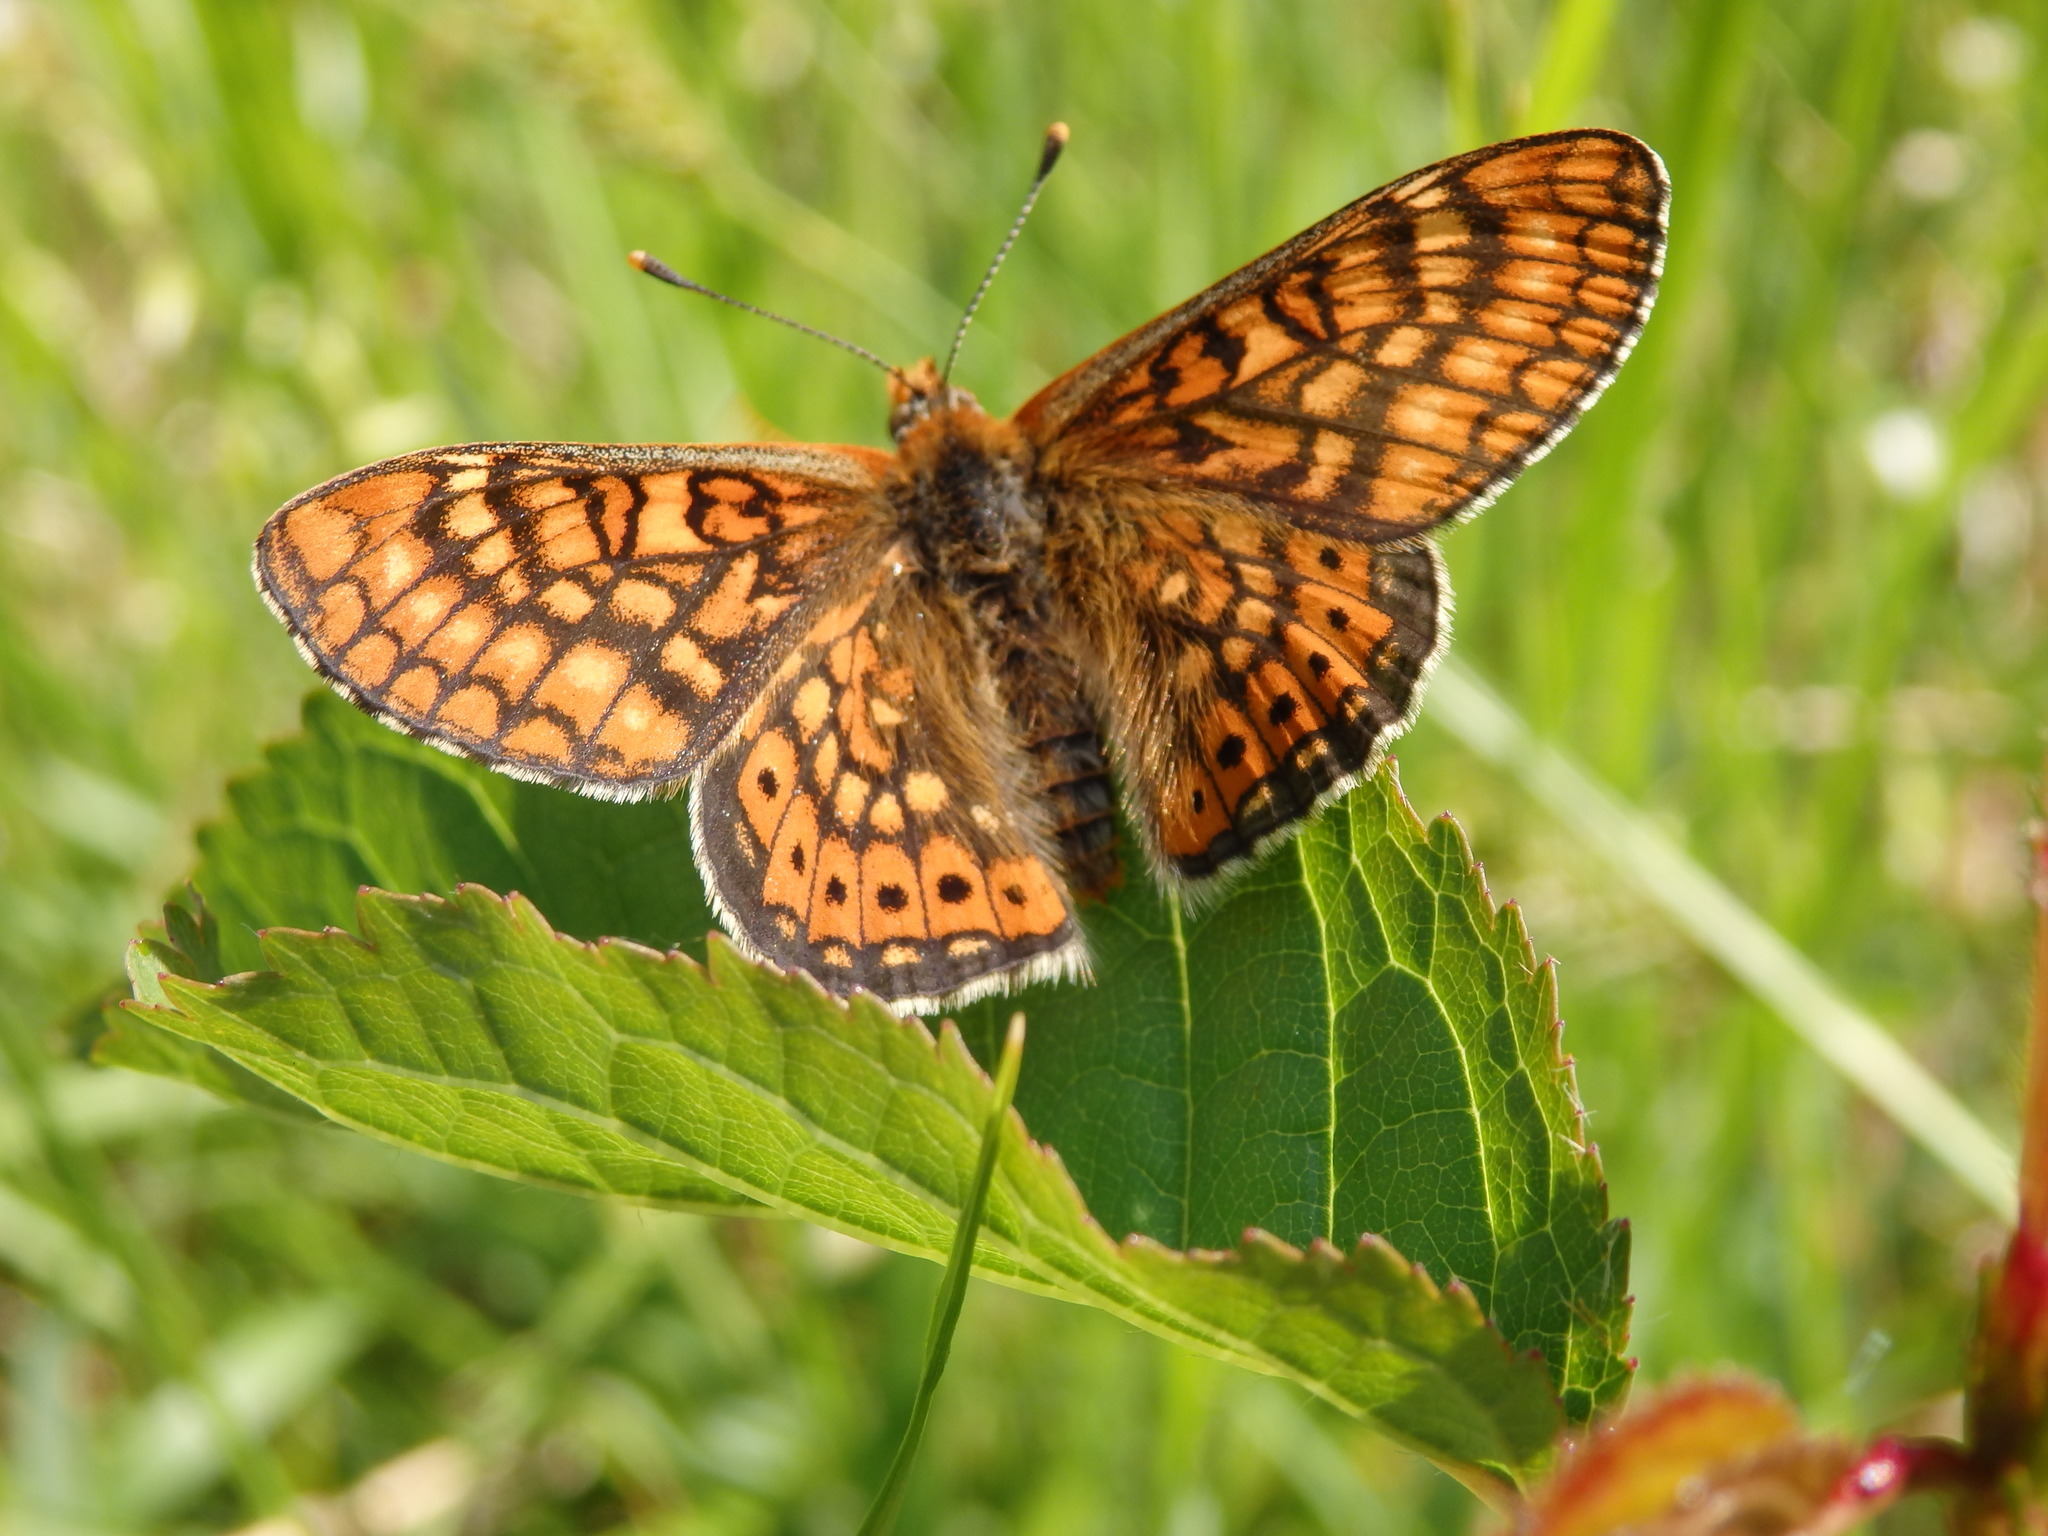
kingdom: Animalia
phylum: Arthropoda
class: Insecta
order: Lepidoptera
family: Nymphalidae
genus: Euphydryas
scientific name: Euphydryas beckeri
